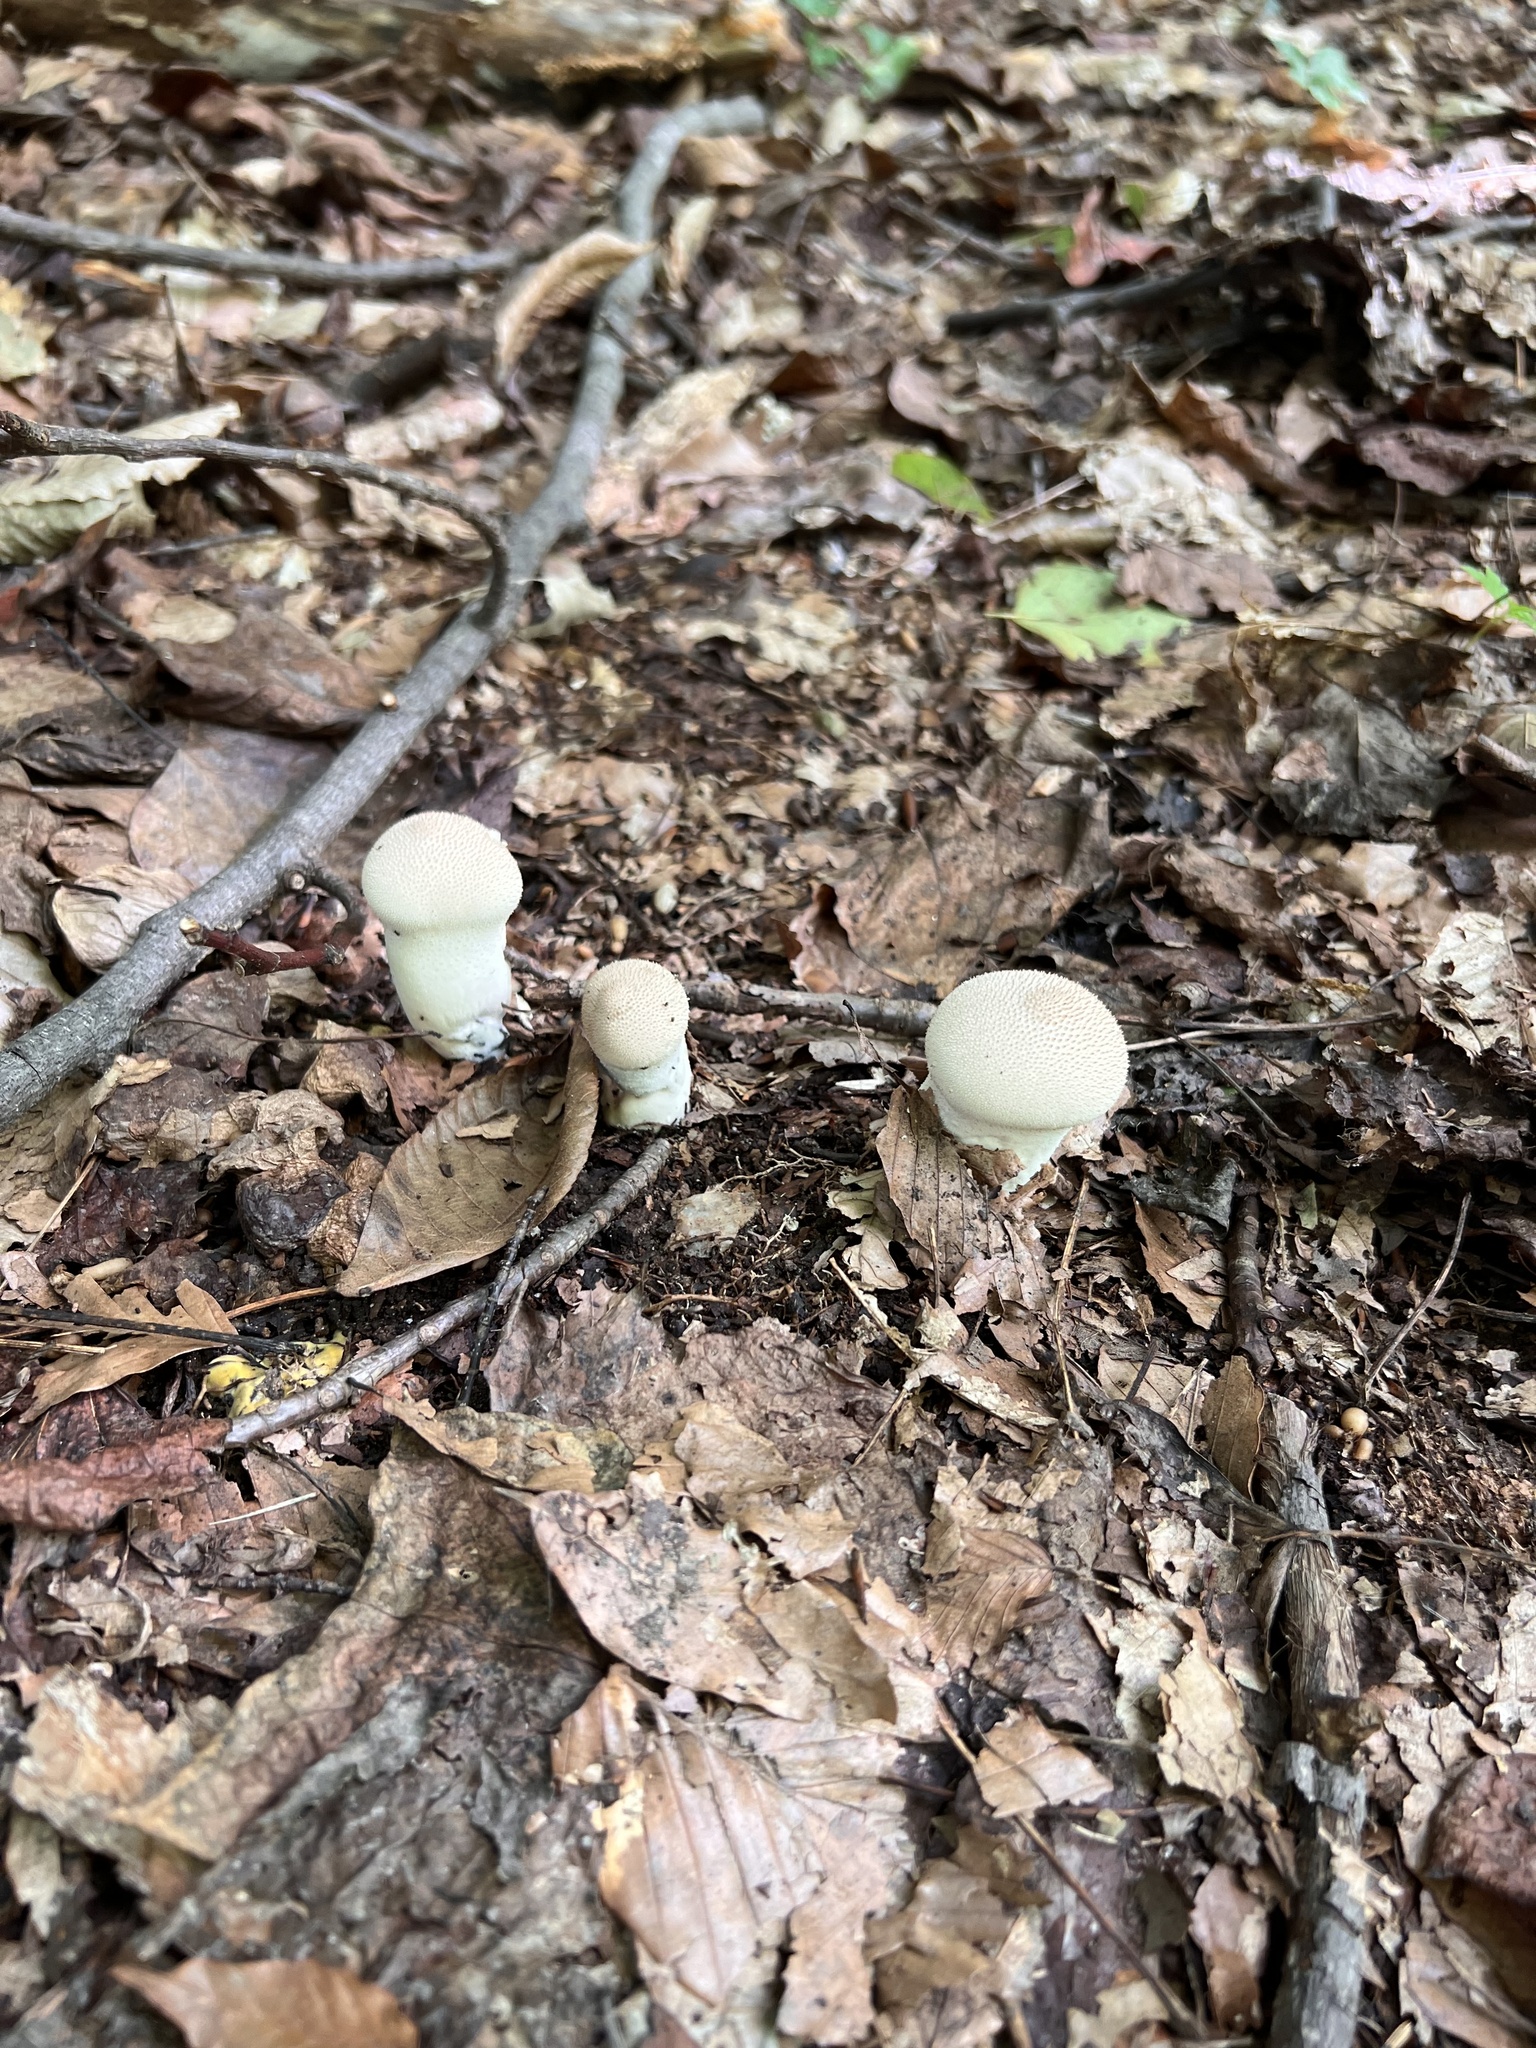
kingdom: Fungi
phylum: Basidiomycota
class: Agaricomycetes
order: Agaricales
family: Lycoperdaceae
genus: Lycoperdon
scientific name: Lycoperdon perlatum
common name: Common puffball
